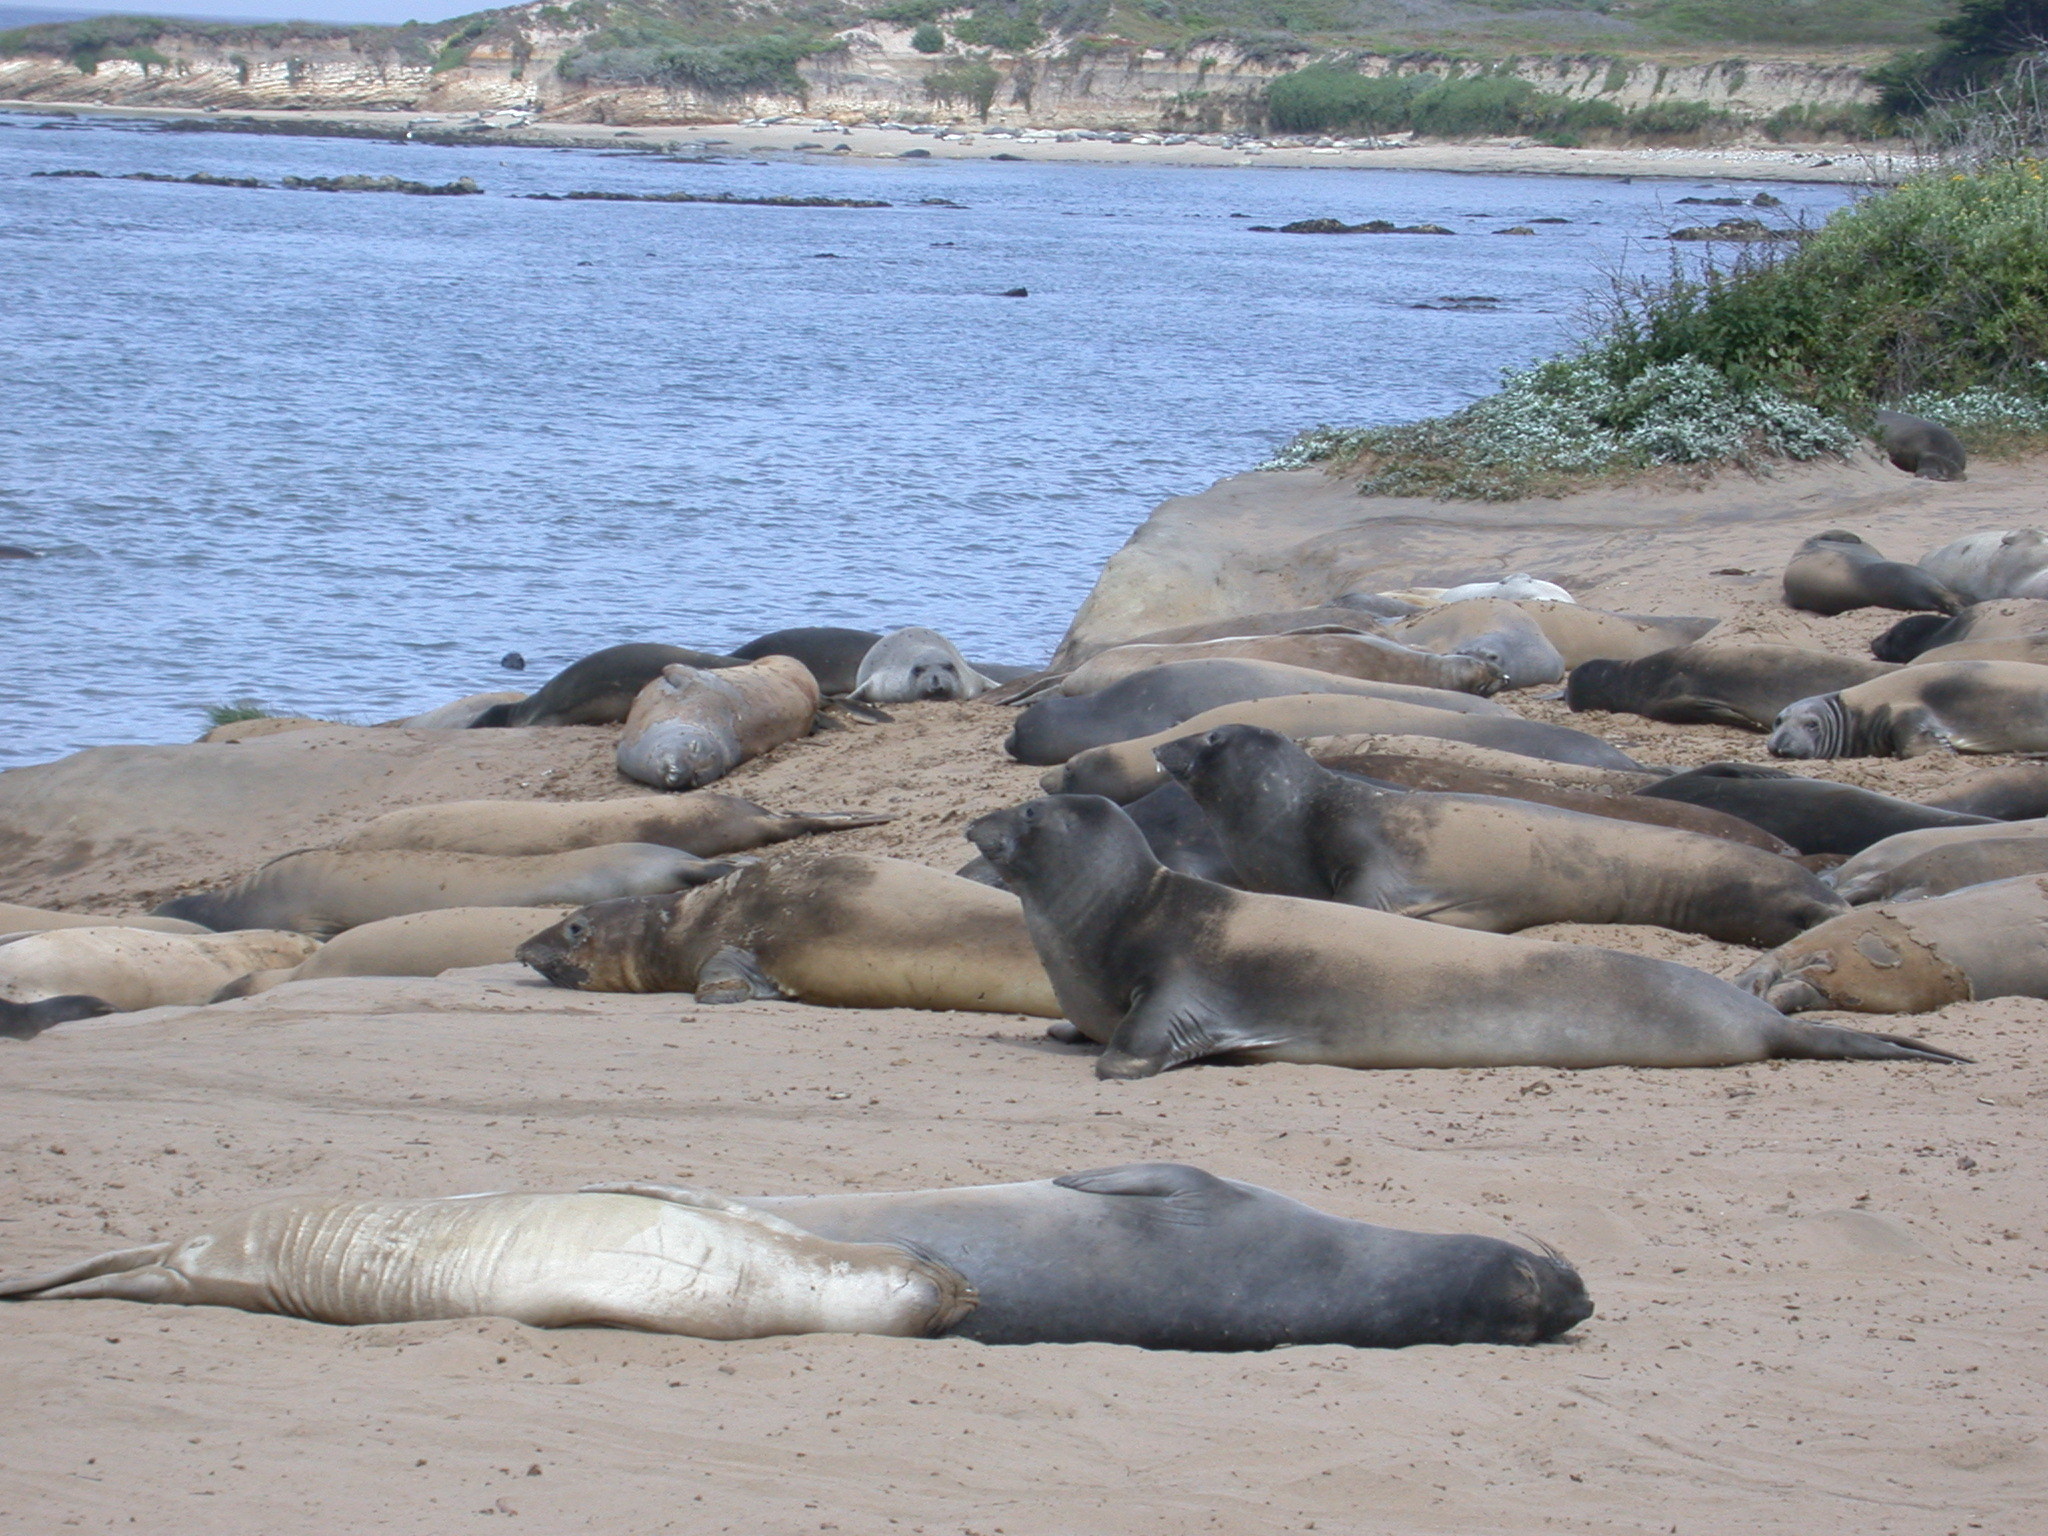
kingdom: Animalia
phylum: Chordata
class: Mammalia
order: Carnivora
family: Phocidae
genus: Mirounga
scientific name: Mirounga angustirostris
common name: Northern elephant seal
